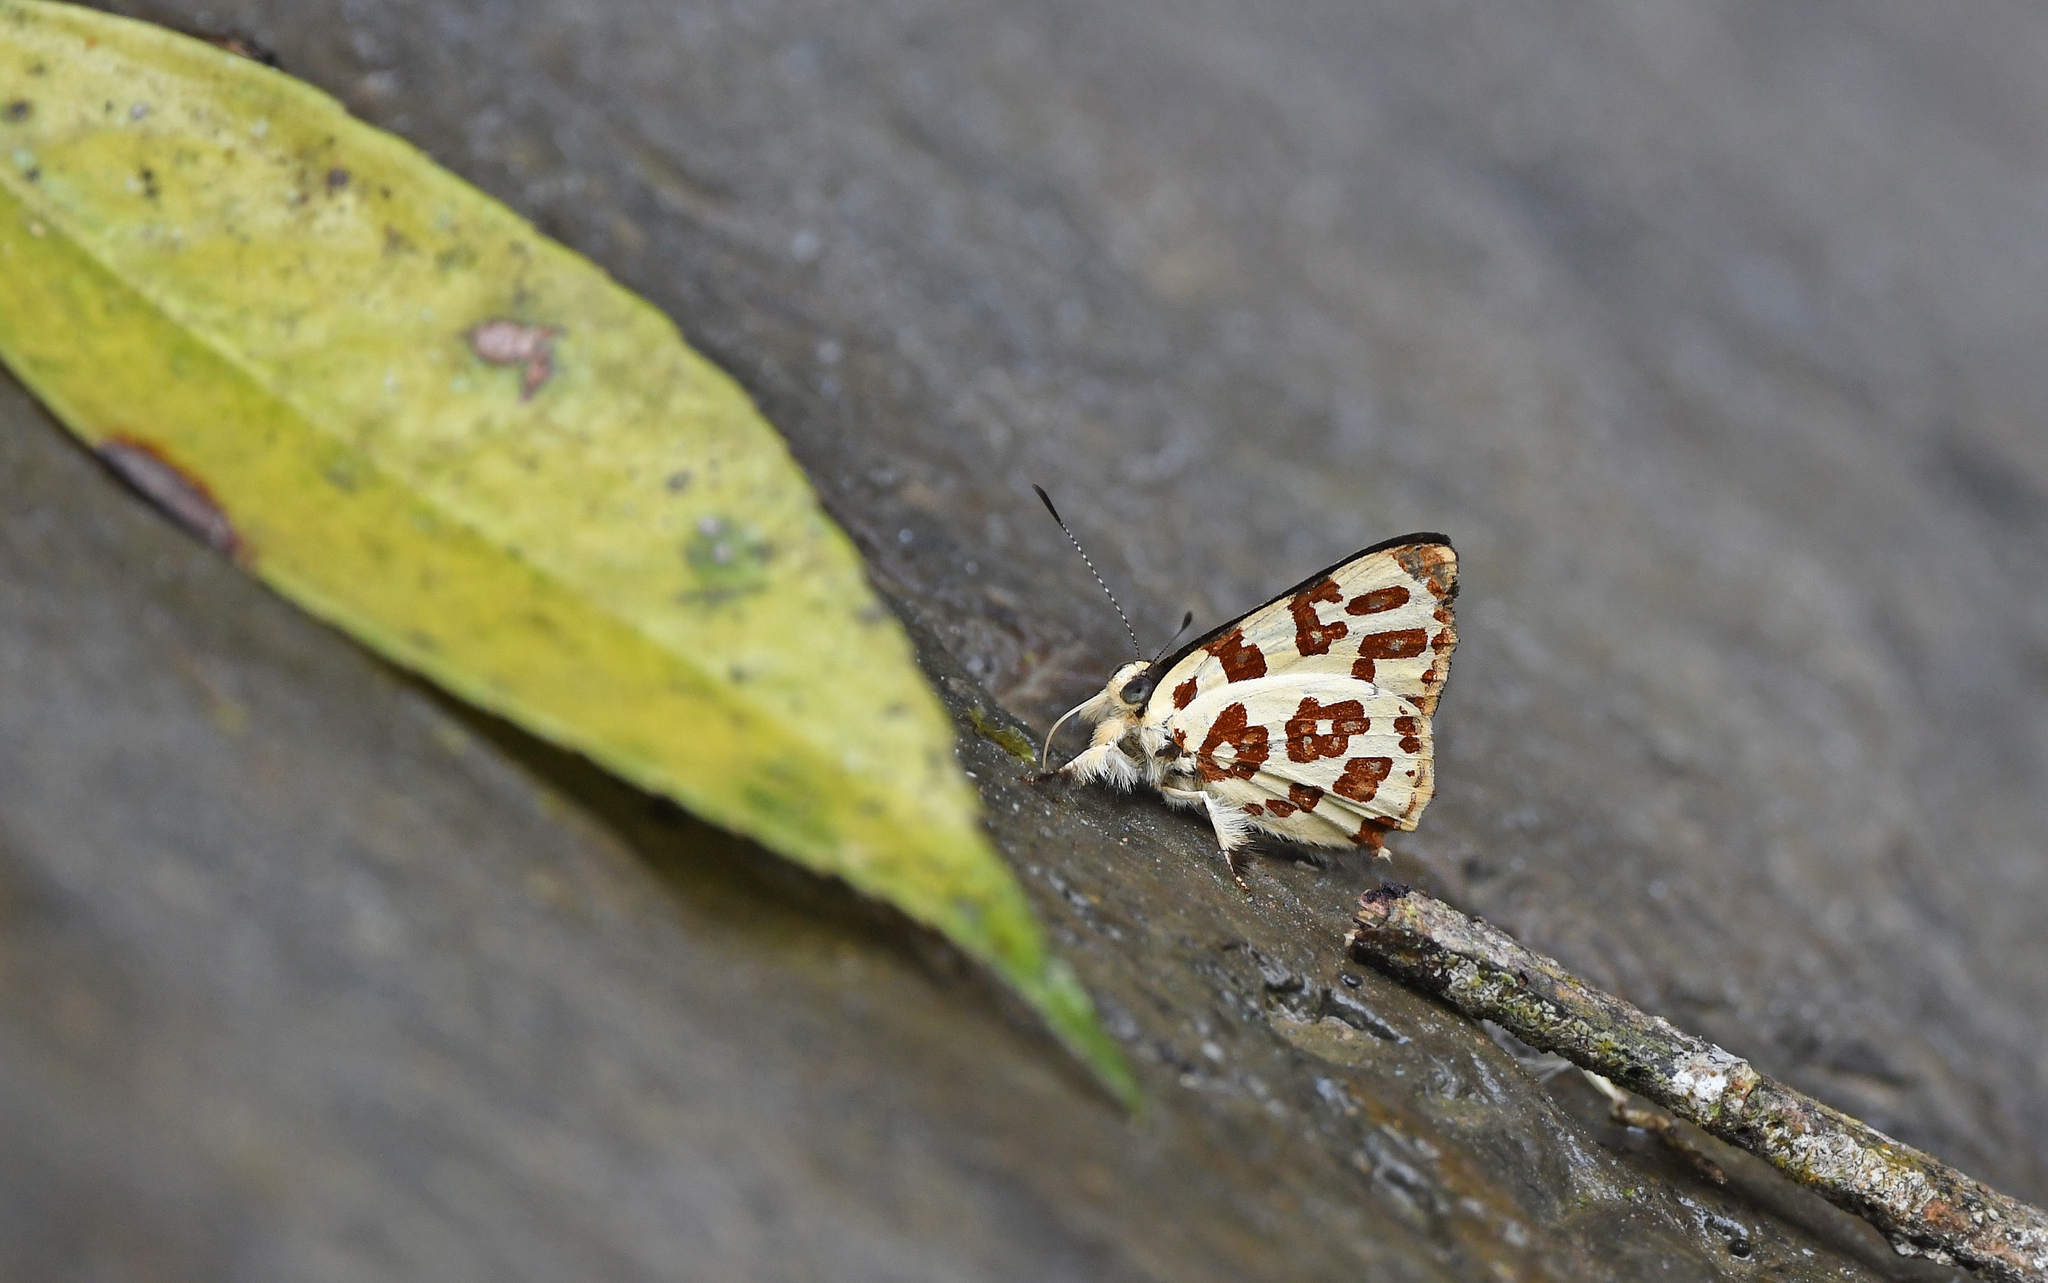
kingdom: Animalia
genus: Anteros
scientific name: Anteros bracteatus
